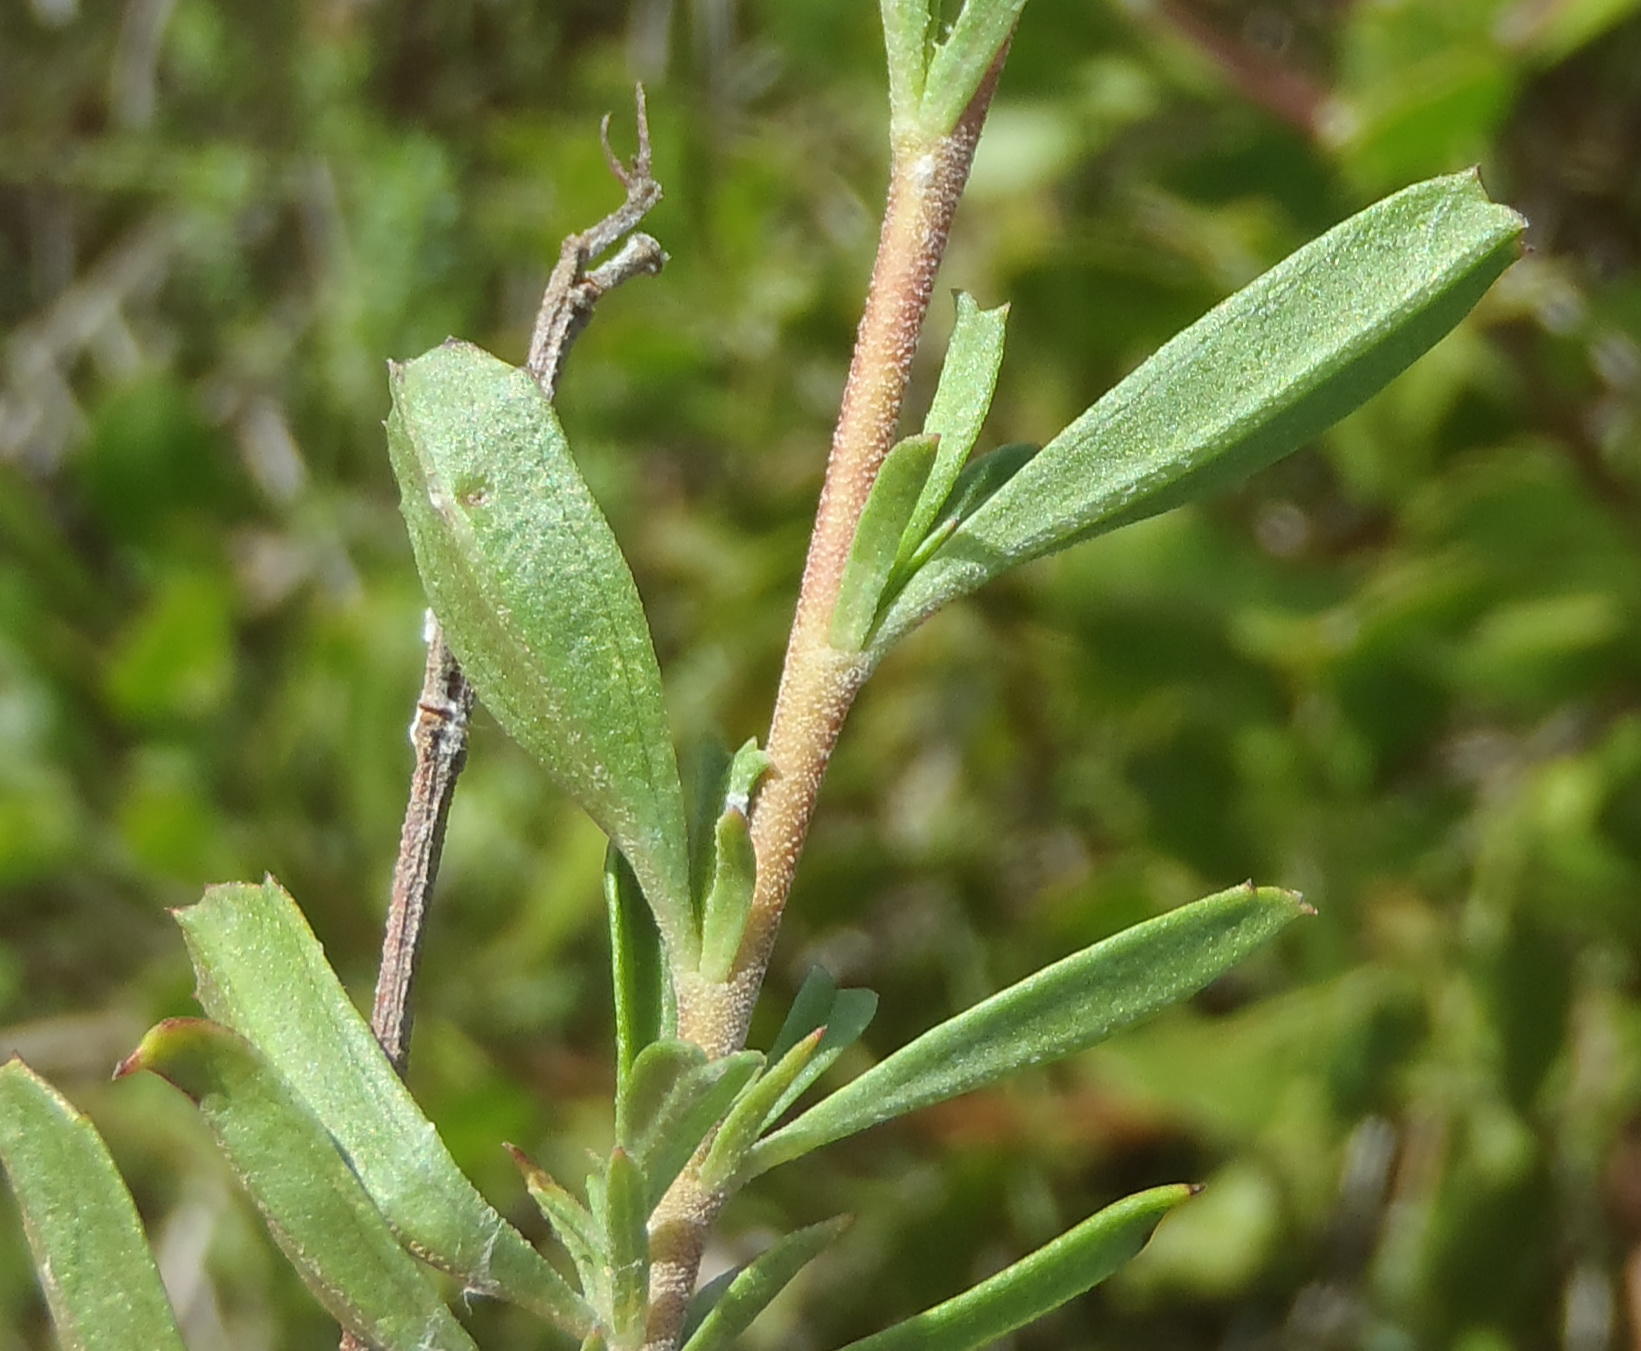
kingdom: Plantae
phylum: Tracheophyta
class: Magnoliopsida
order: Malvales
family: Malvaceae
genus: Hermannia
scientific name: Hermannia flammea
